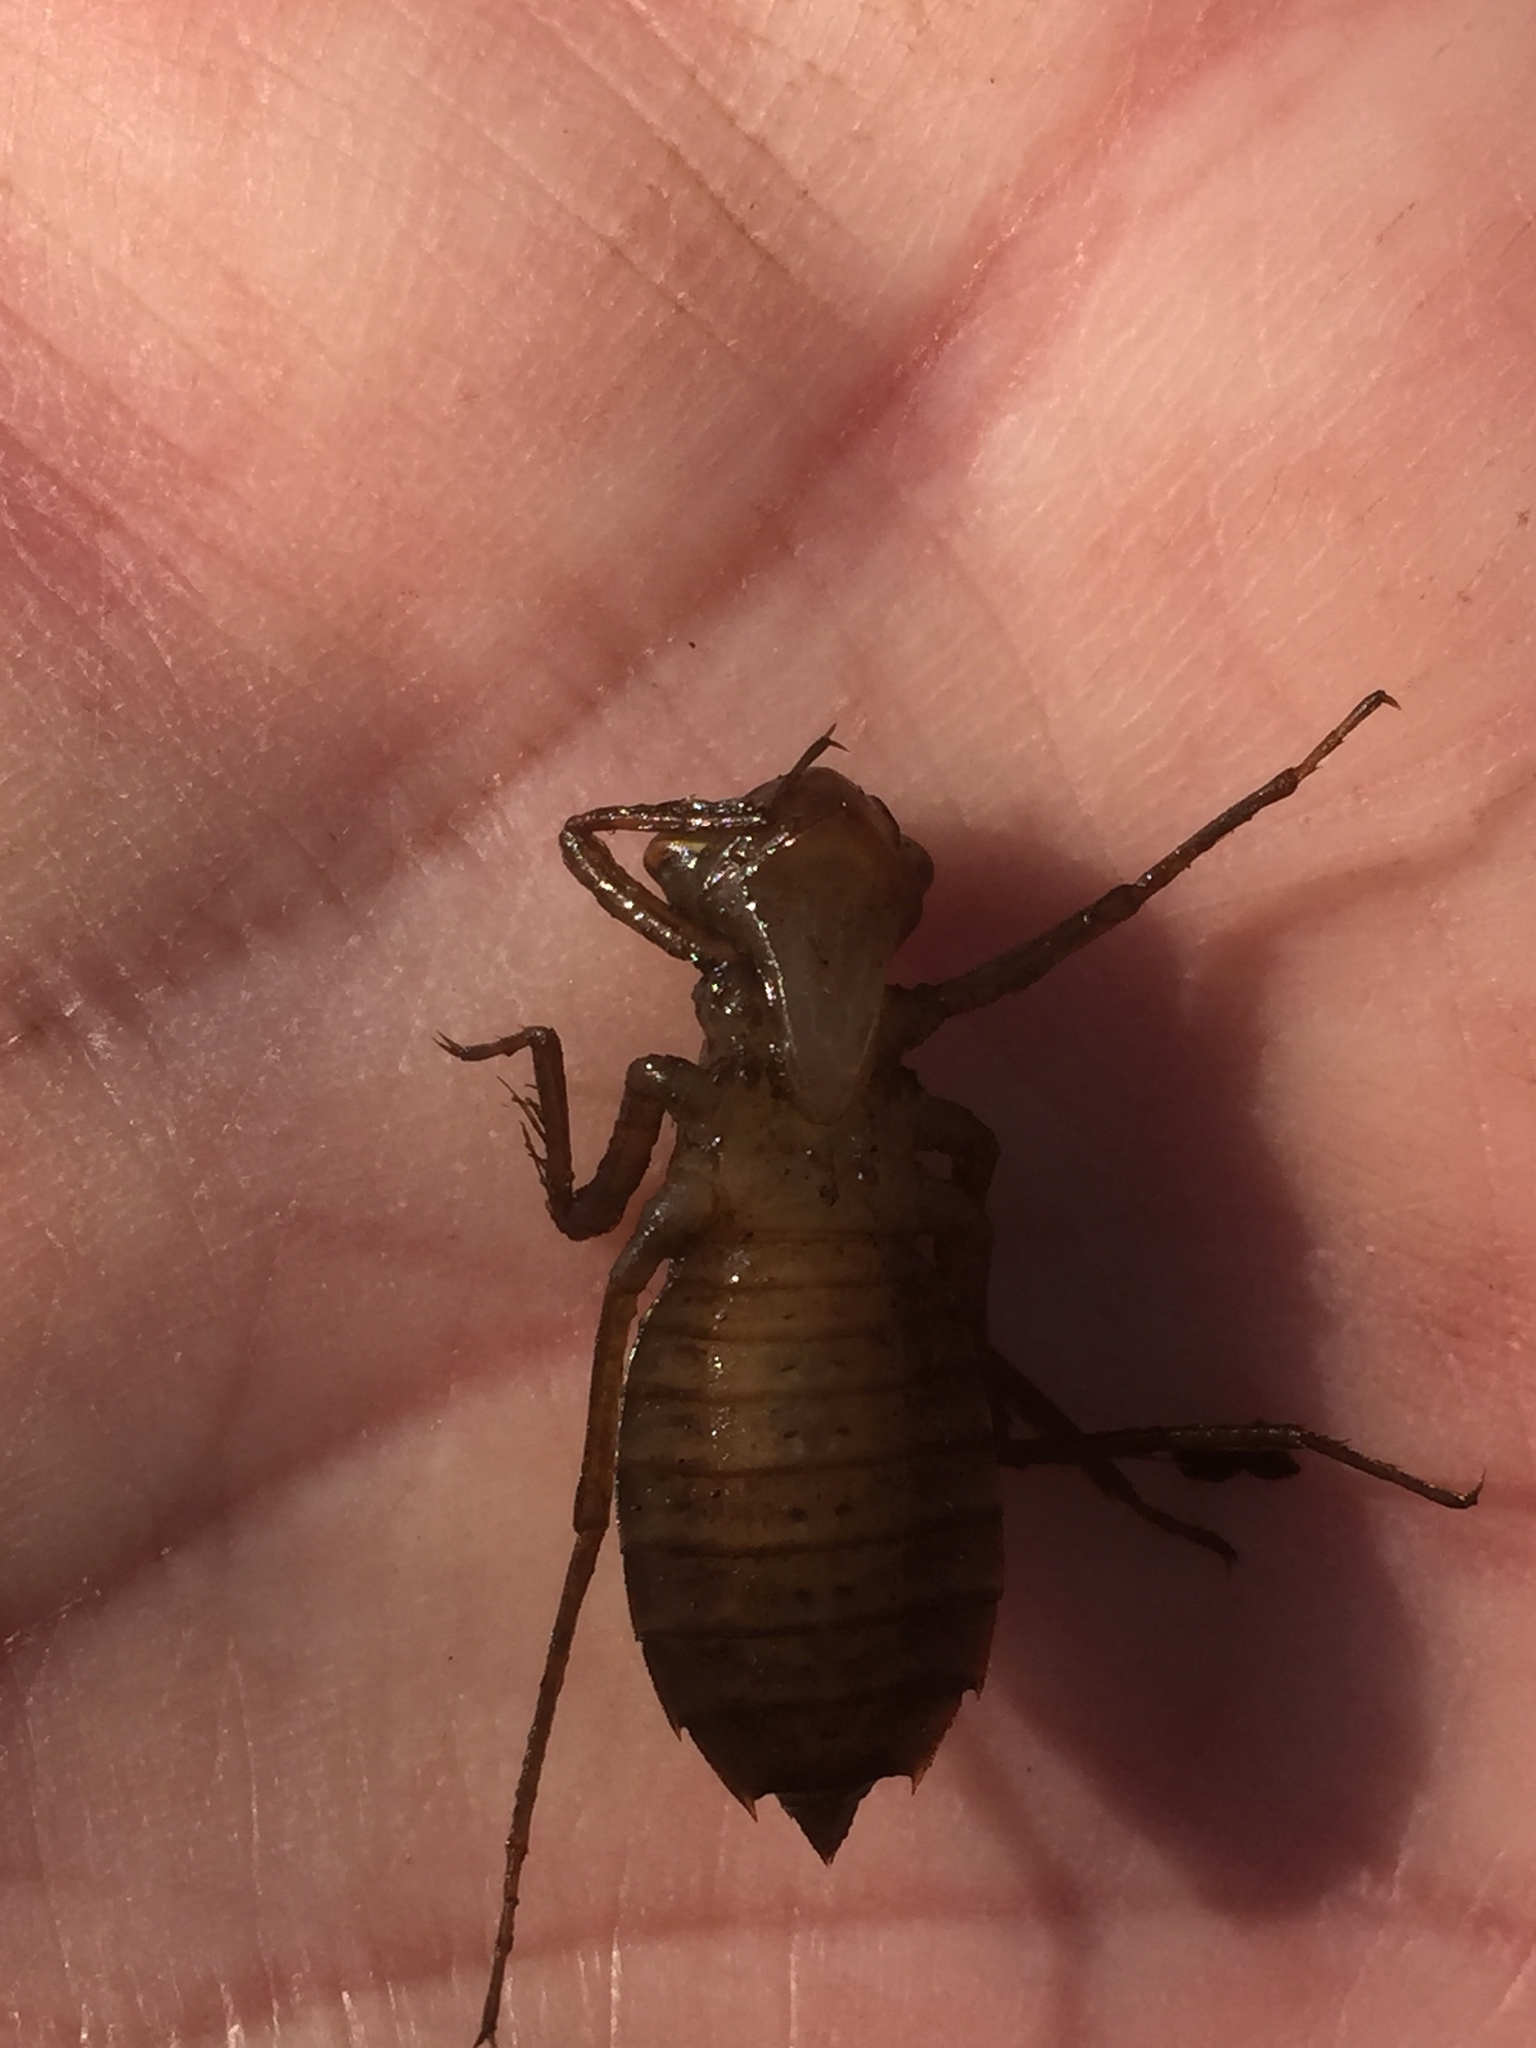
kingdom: Animalia
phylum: Arthropoda
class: Insecta
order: Odonata
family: Libellulidae
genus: Leucorrhinia
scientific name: Leucorrhinia pectoralis
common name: Yellow-spotted whiteface
